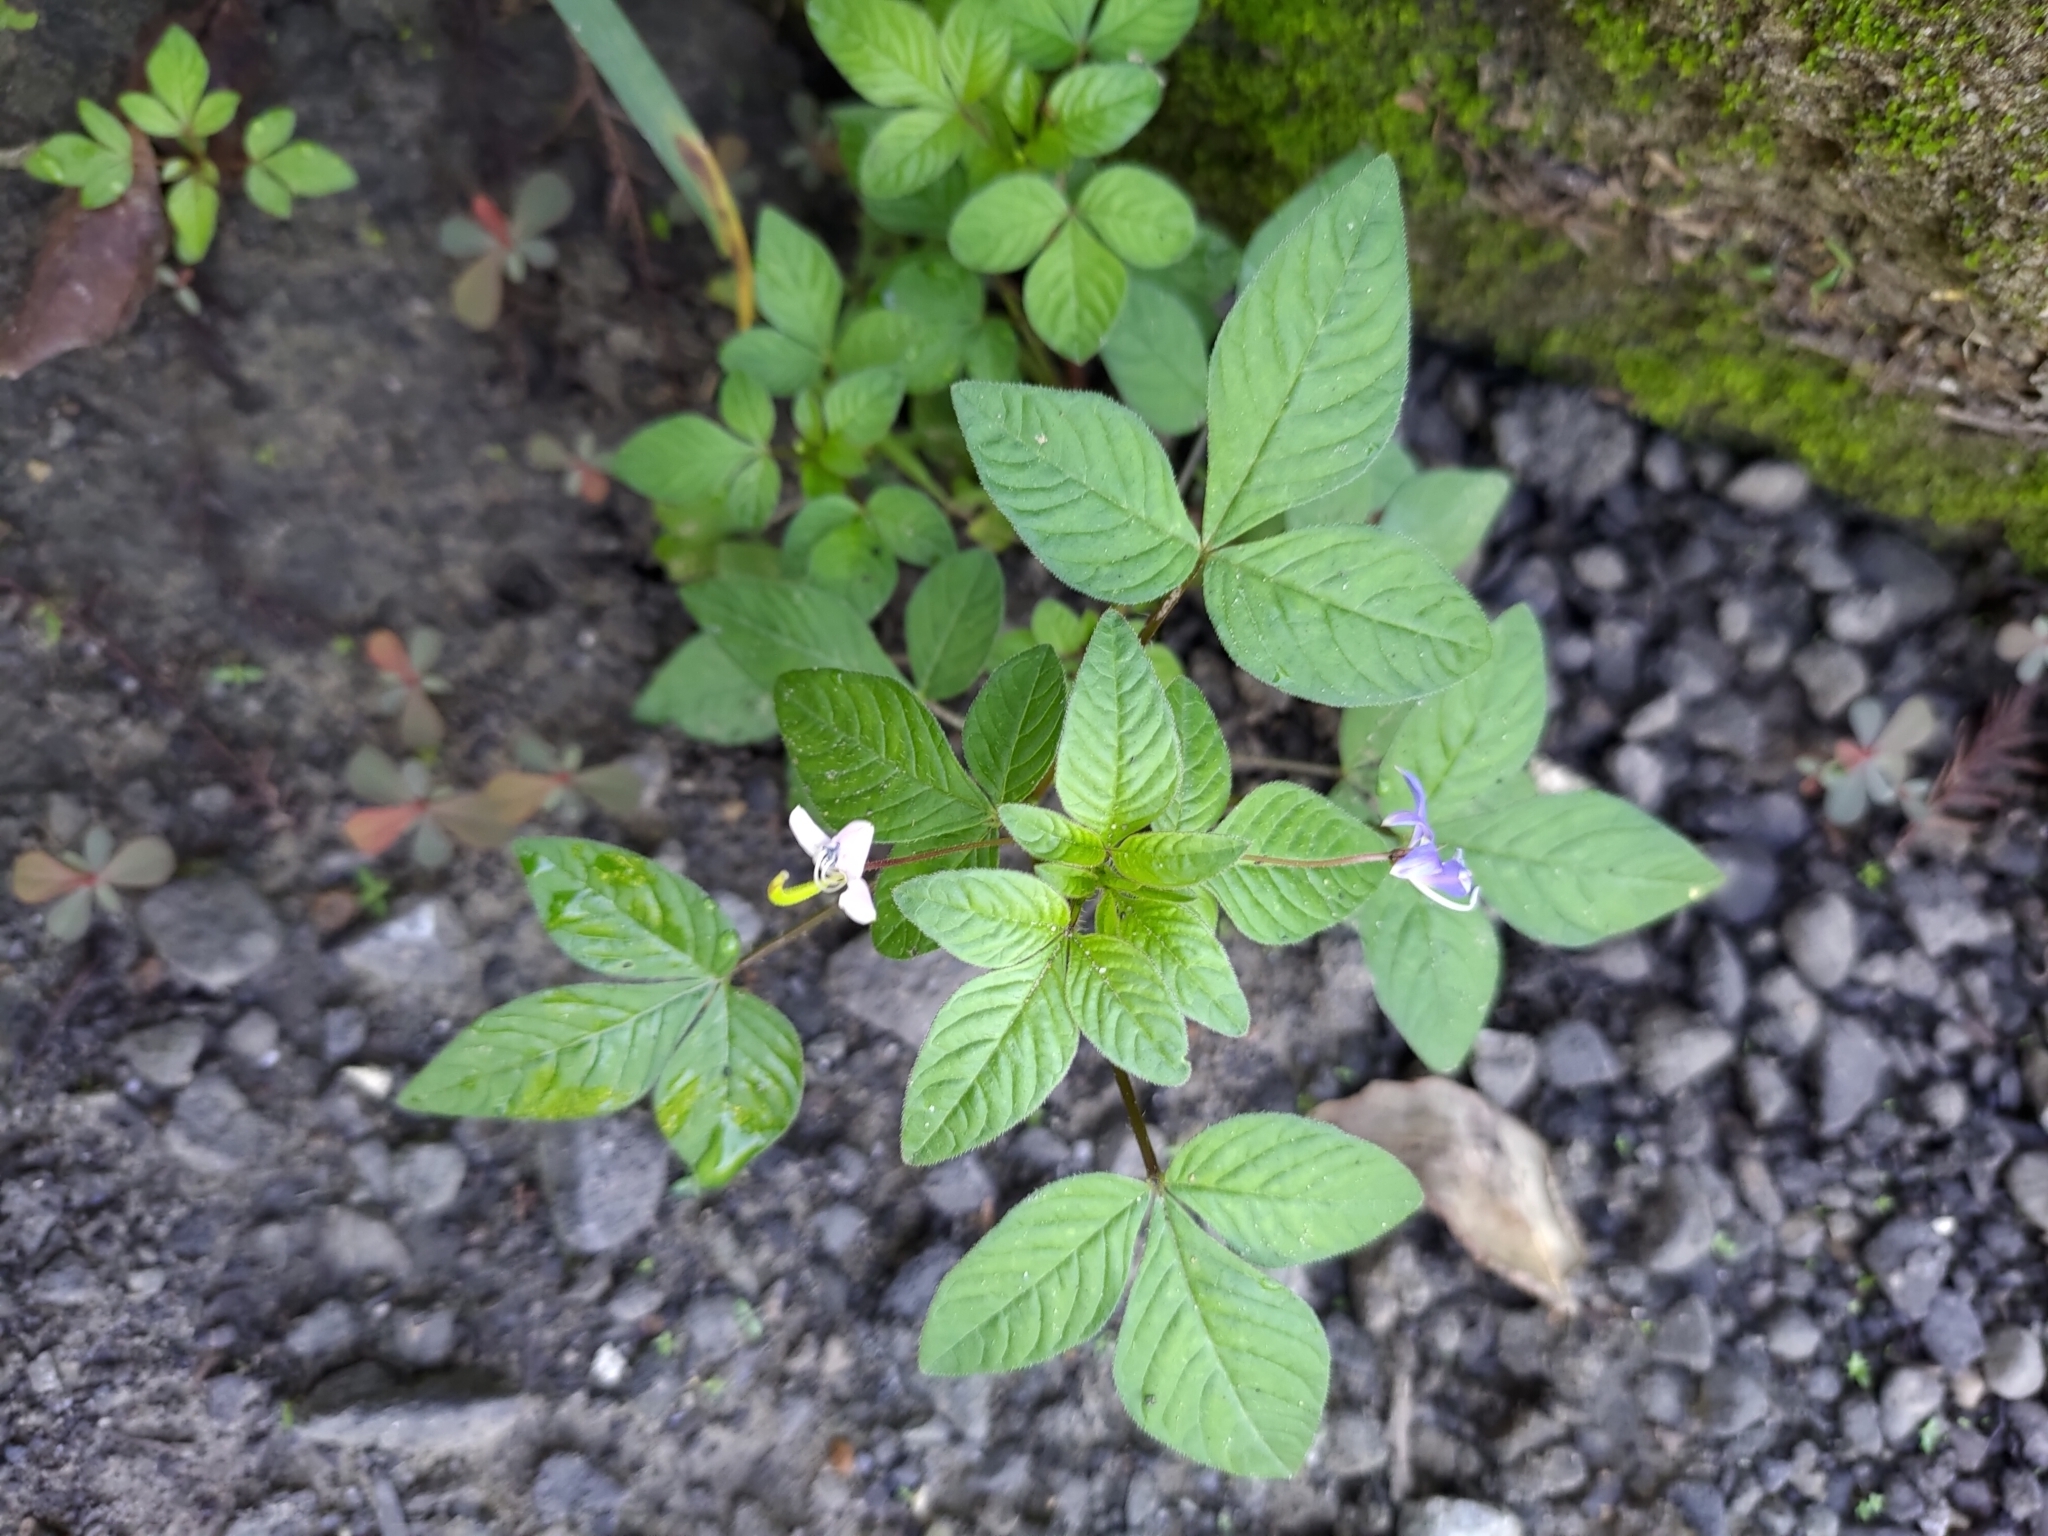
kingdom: Plantae
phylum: Tracheophyta
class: Magnoliopsida
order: Brassicales
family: Cleomaceae
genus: Sieruela
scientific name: Sieruela rutidosperma
